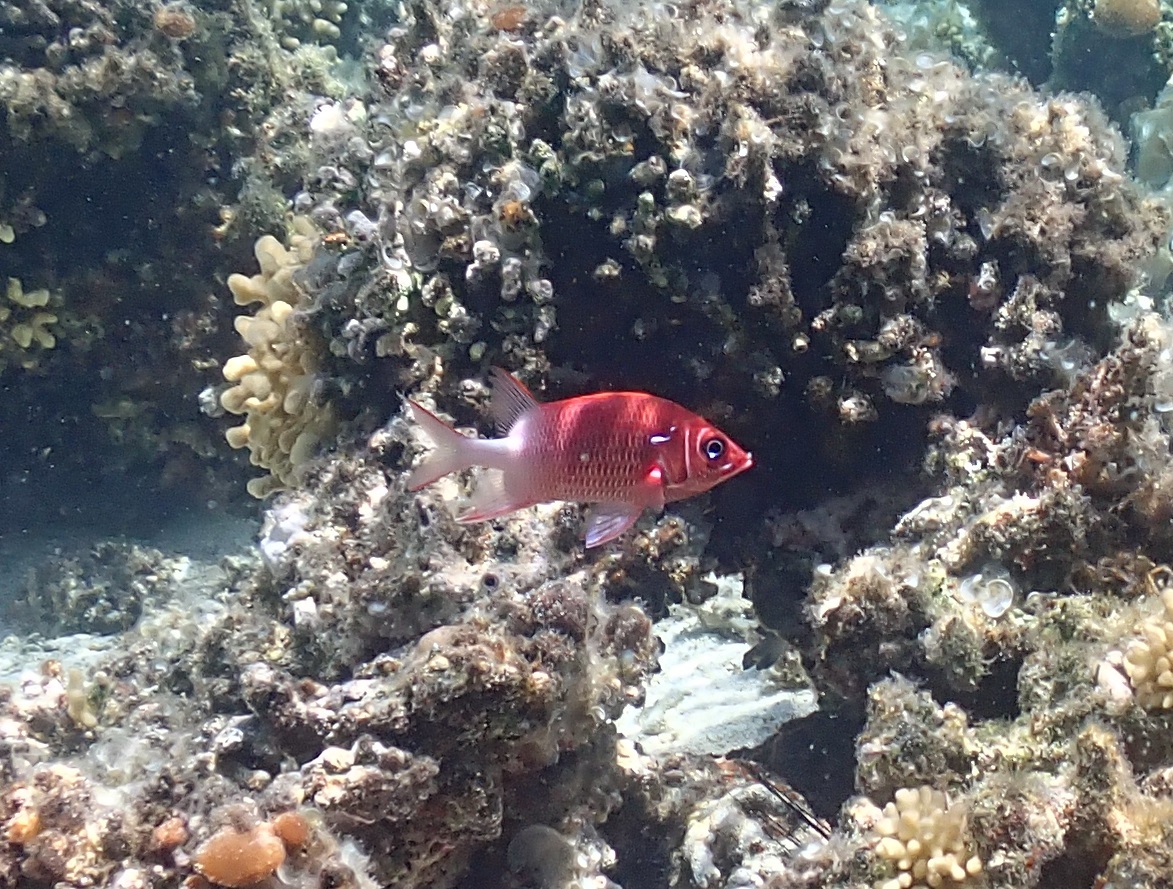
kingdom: Animalia
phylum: Chordata
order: Beryciformes
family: Holocentridae
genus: Sargocentron
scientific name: Sargocentron caudimaculatum
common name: Fanfin soldier
